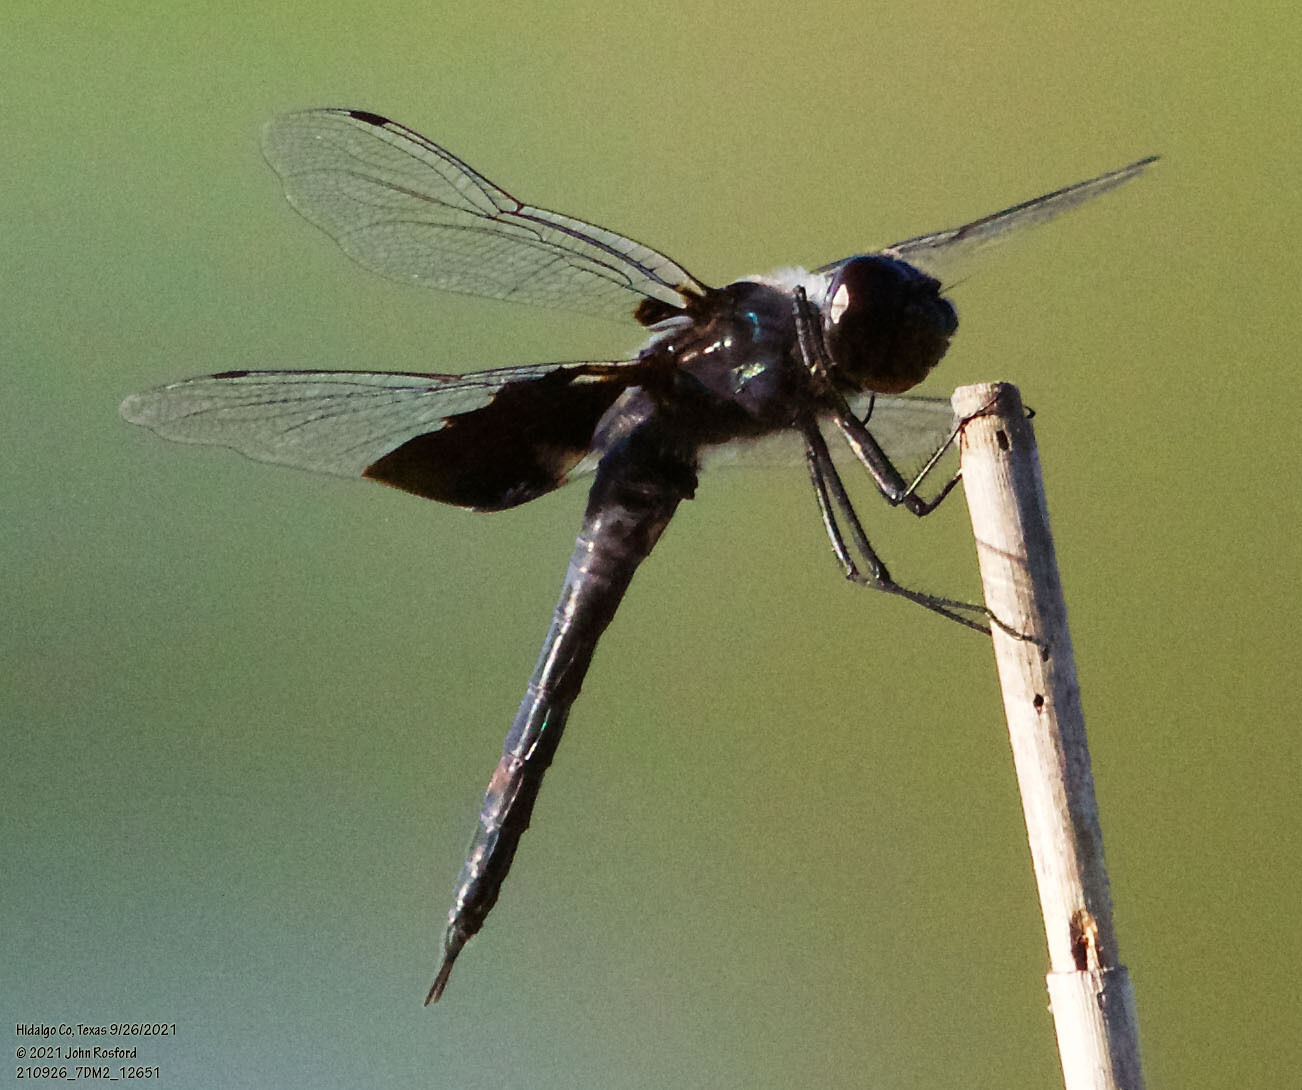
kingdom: Animalia
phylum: Arthropoda
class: Insecta
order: Odonata
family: Libellulidae
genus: Tramea
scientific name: Tramea lacerata
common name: Black saddlebags
